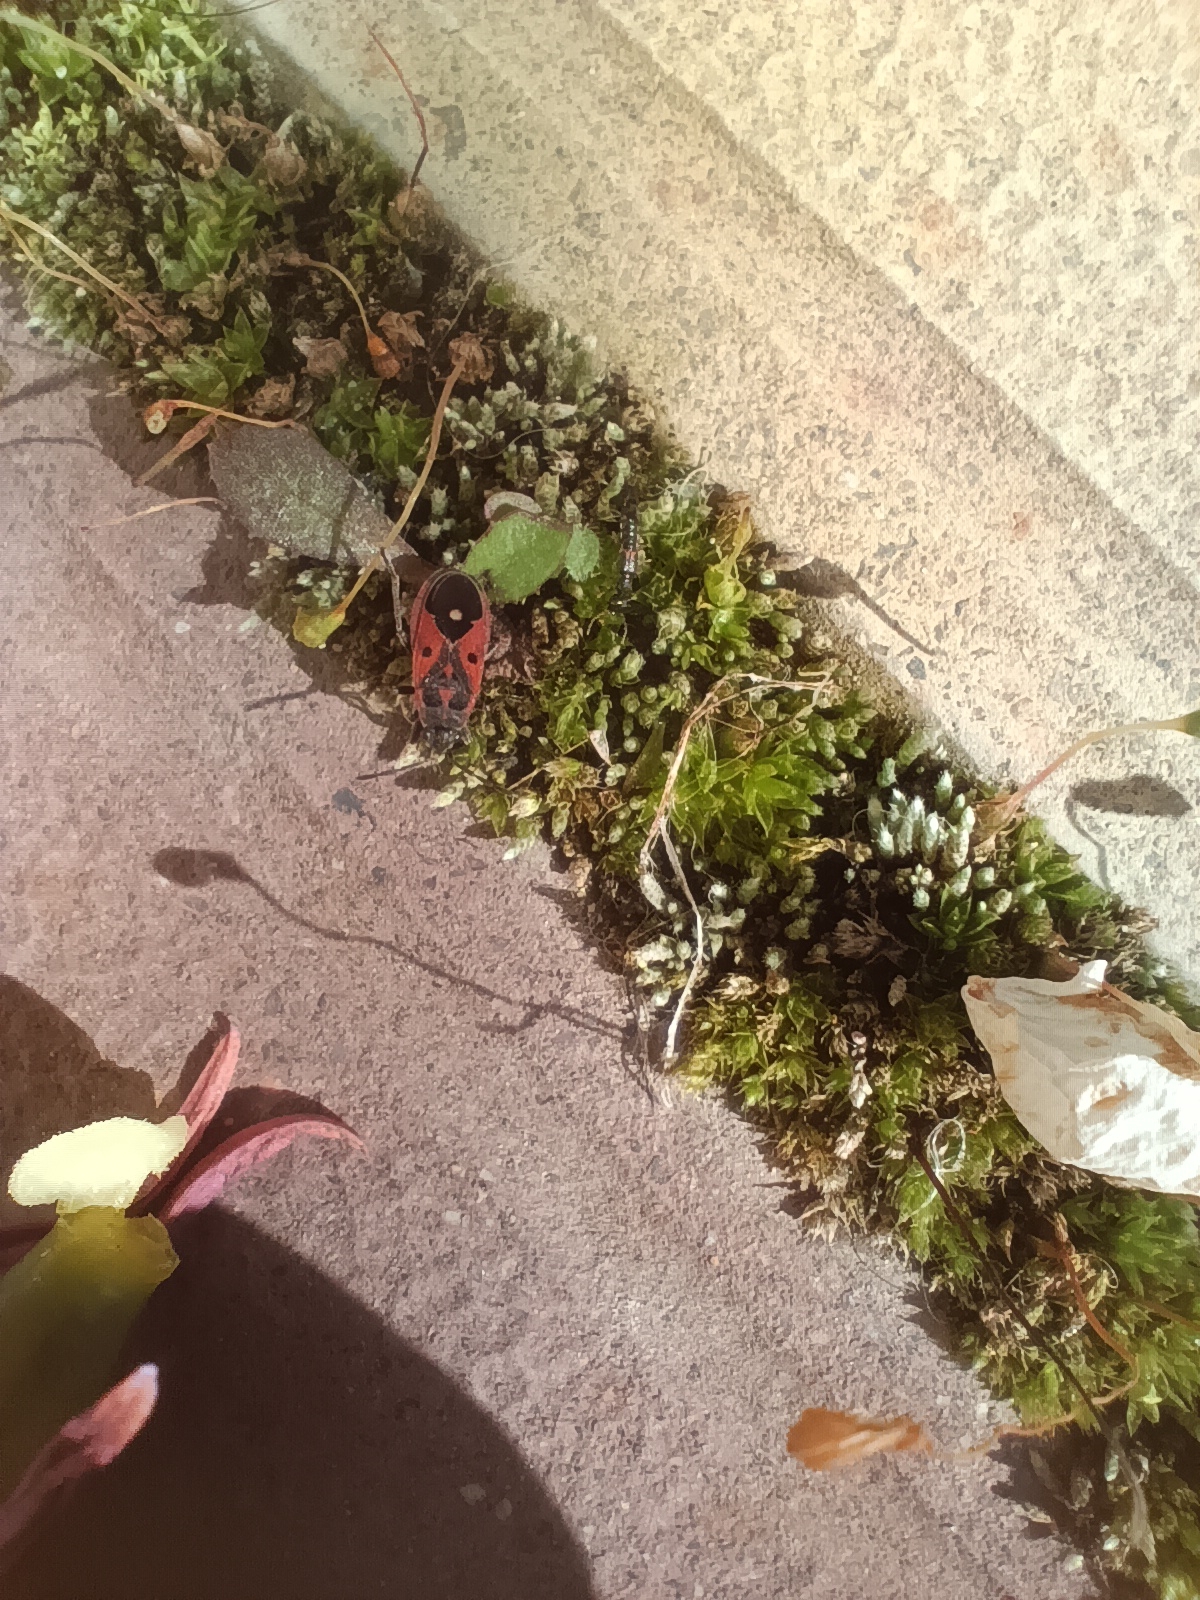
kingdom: Animalia
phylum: Arthropoda
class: Insecta
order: Hemiptera
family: Lygaeidae
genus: Melanocoryphus
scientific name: Melanocoryphus tristrami
